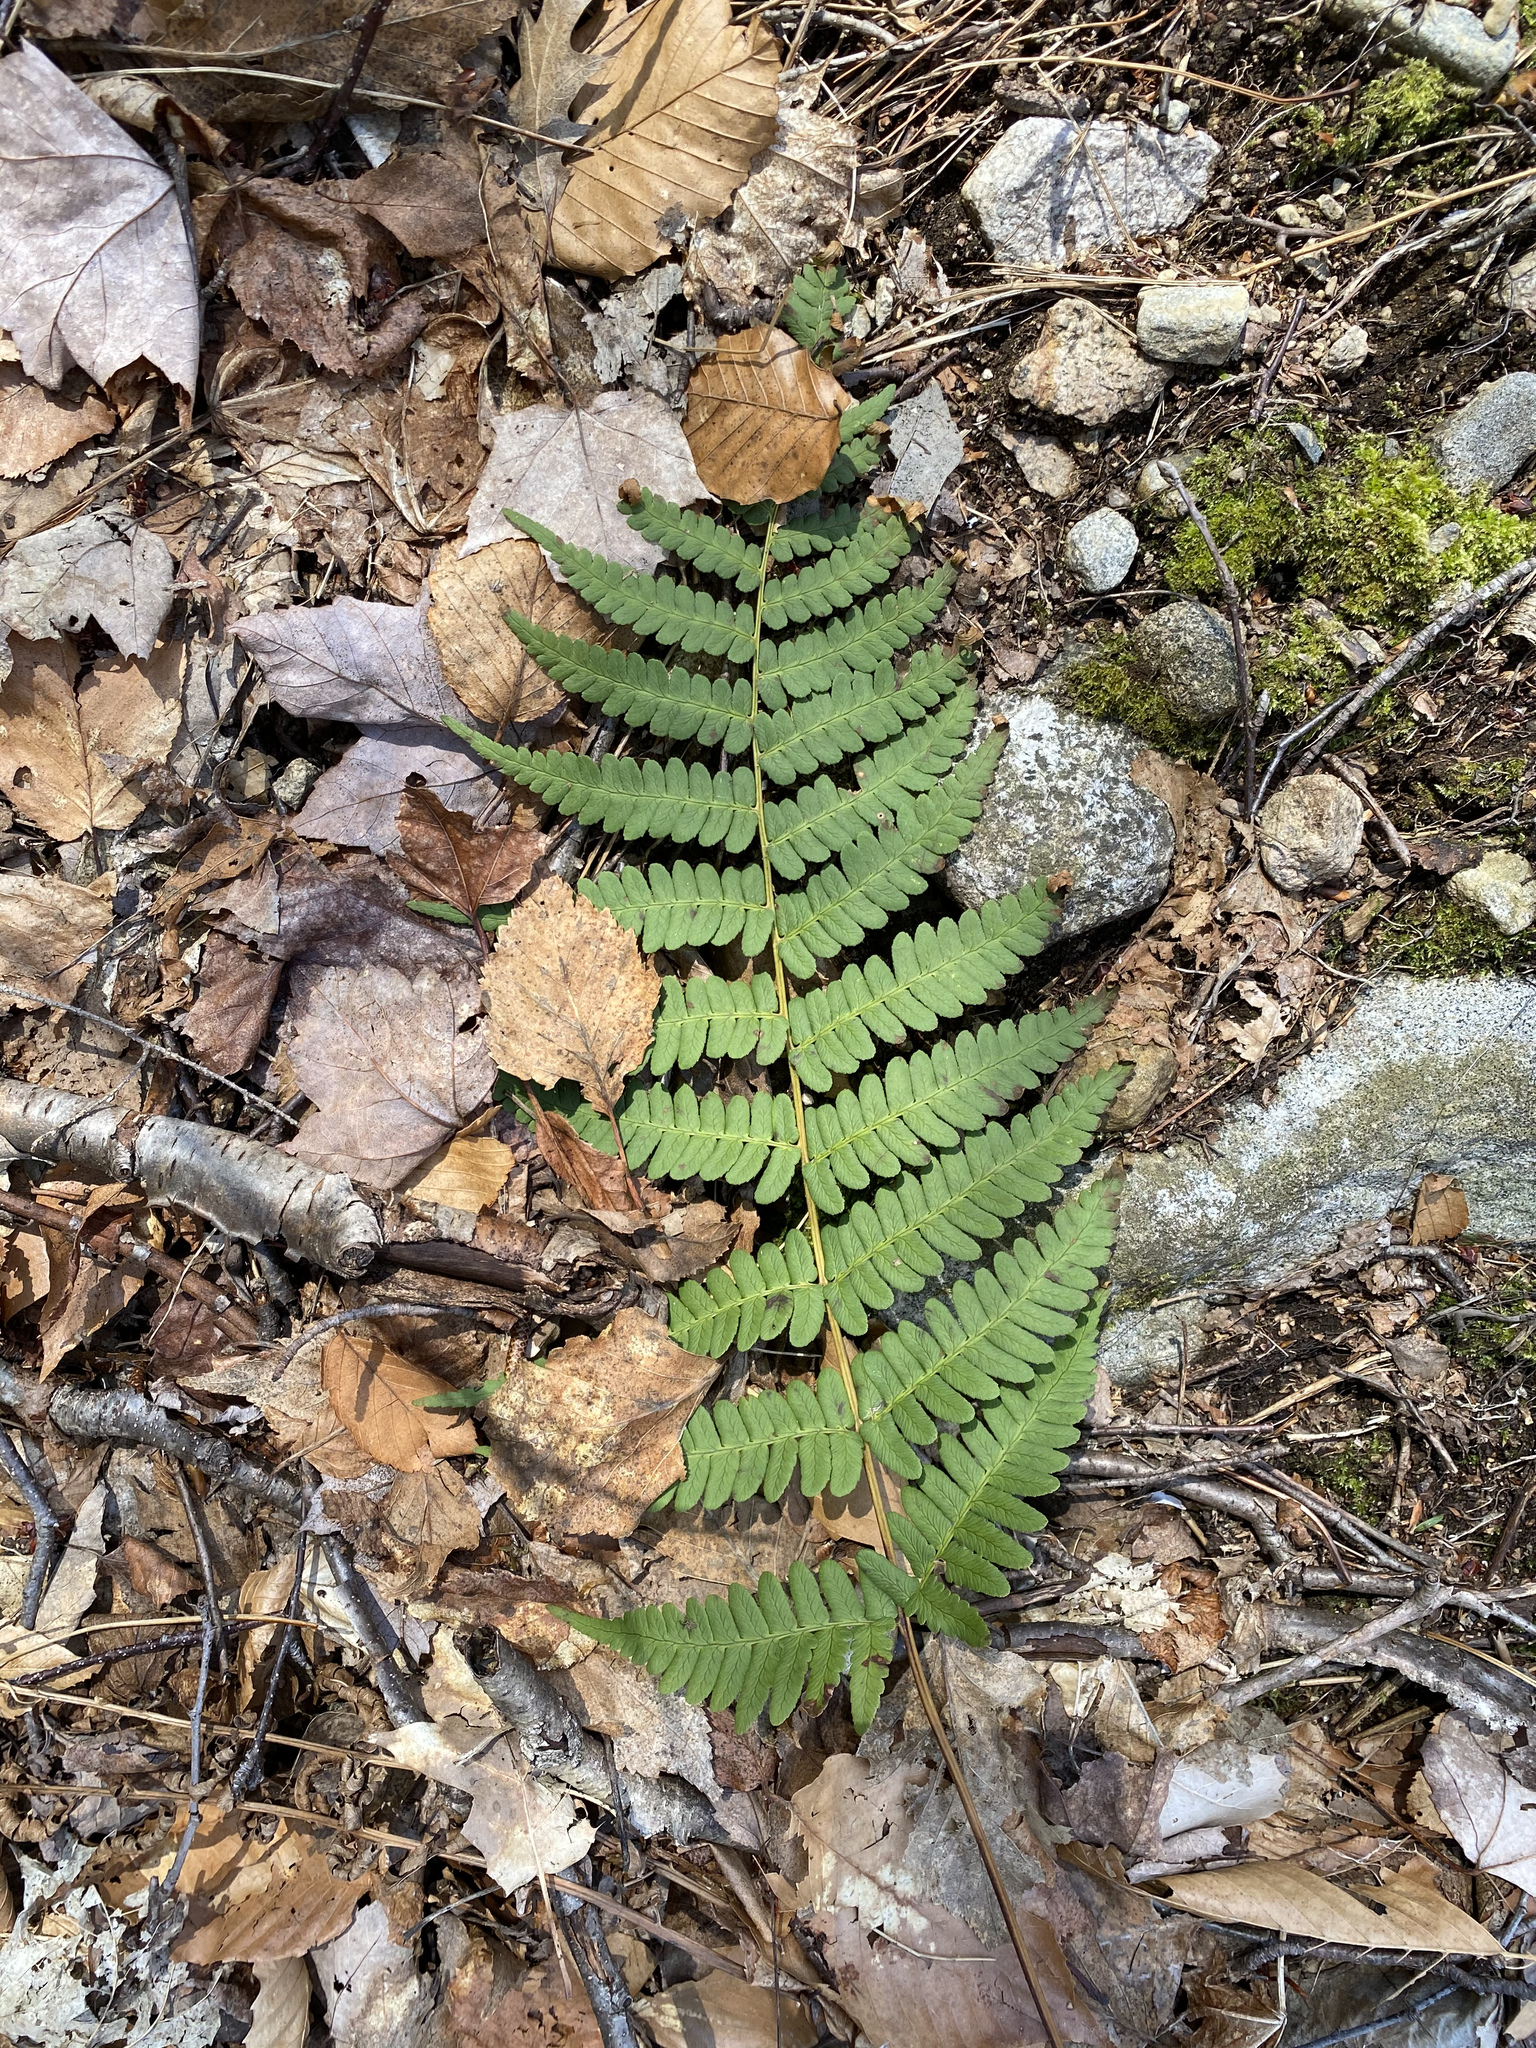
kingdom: Plantae
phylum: Tracheophyta
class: Polypodiopsida
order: Polypodiales
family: Dryopteridaceae
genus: Dryopteris
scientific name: Dryopteris marginalis
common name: Marginal wood fern
